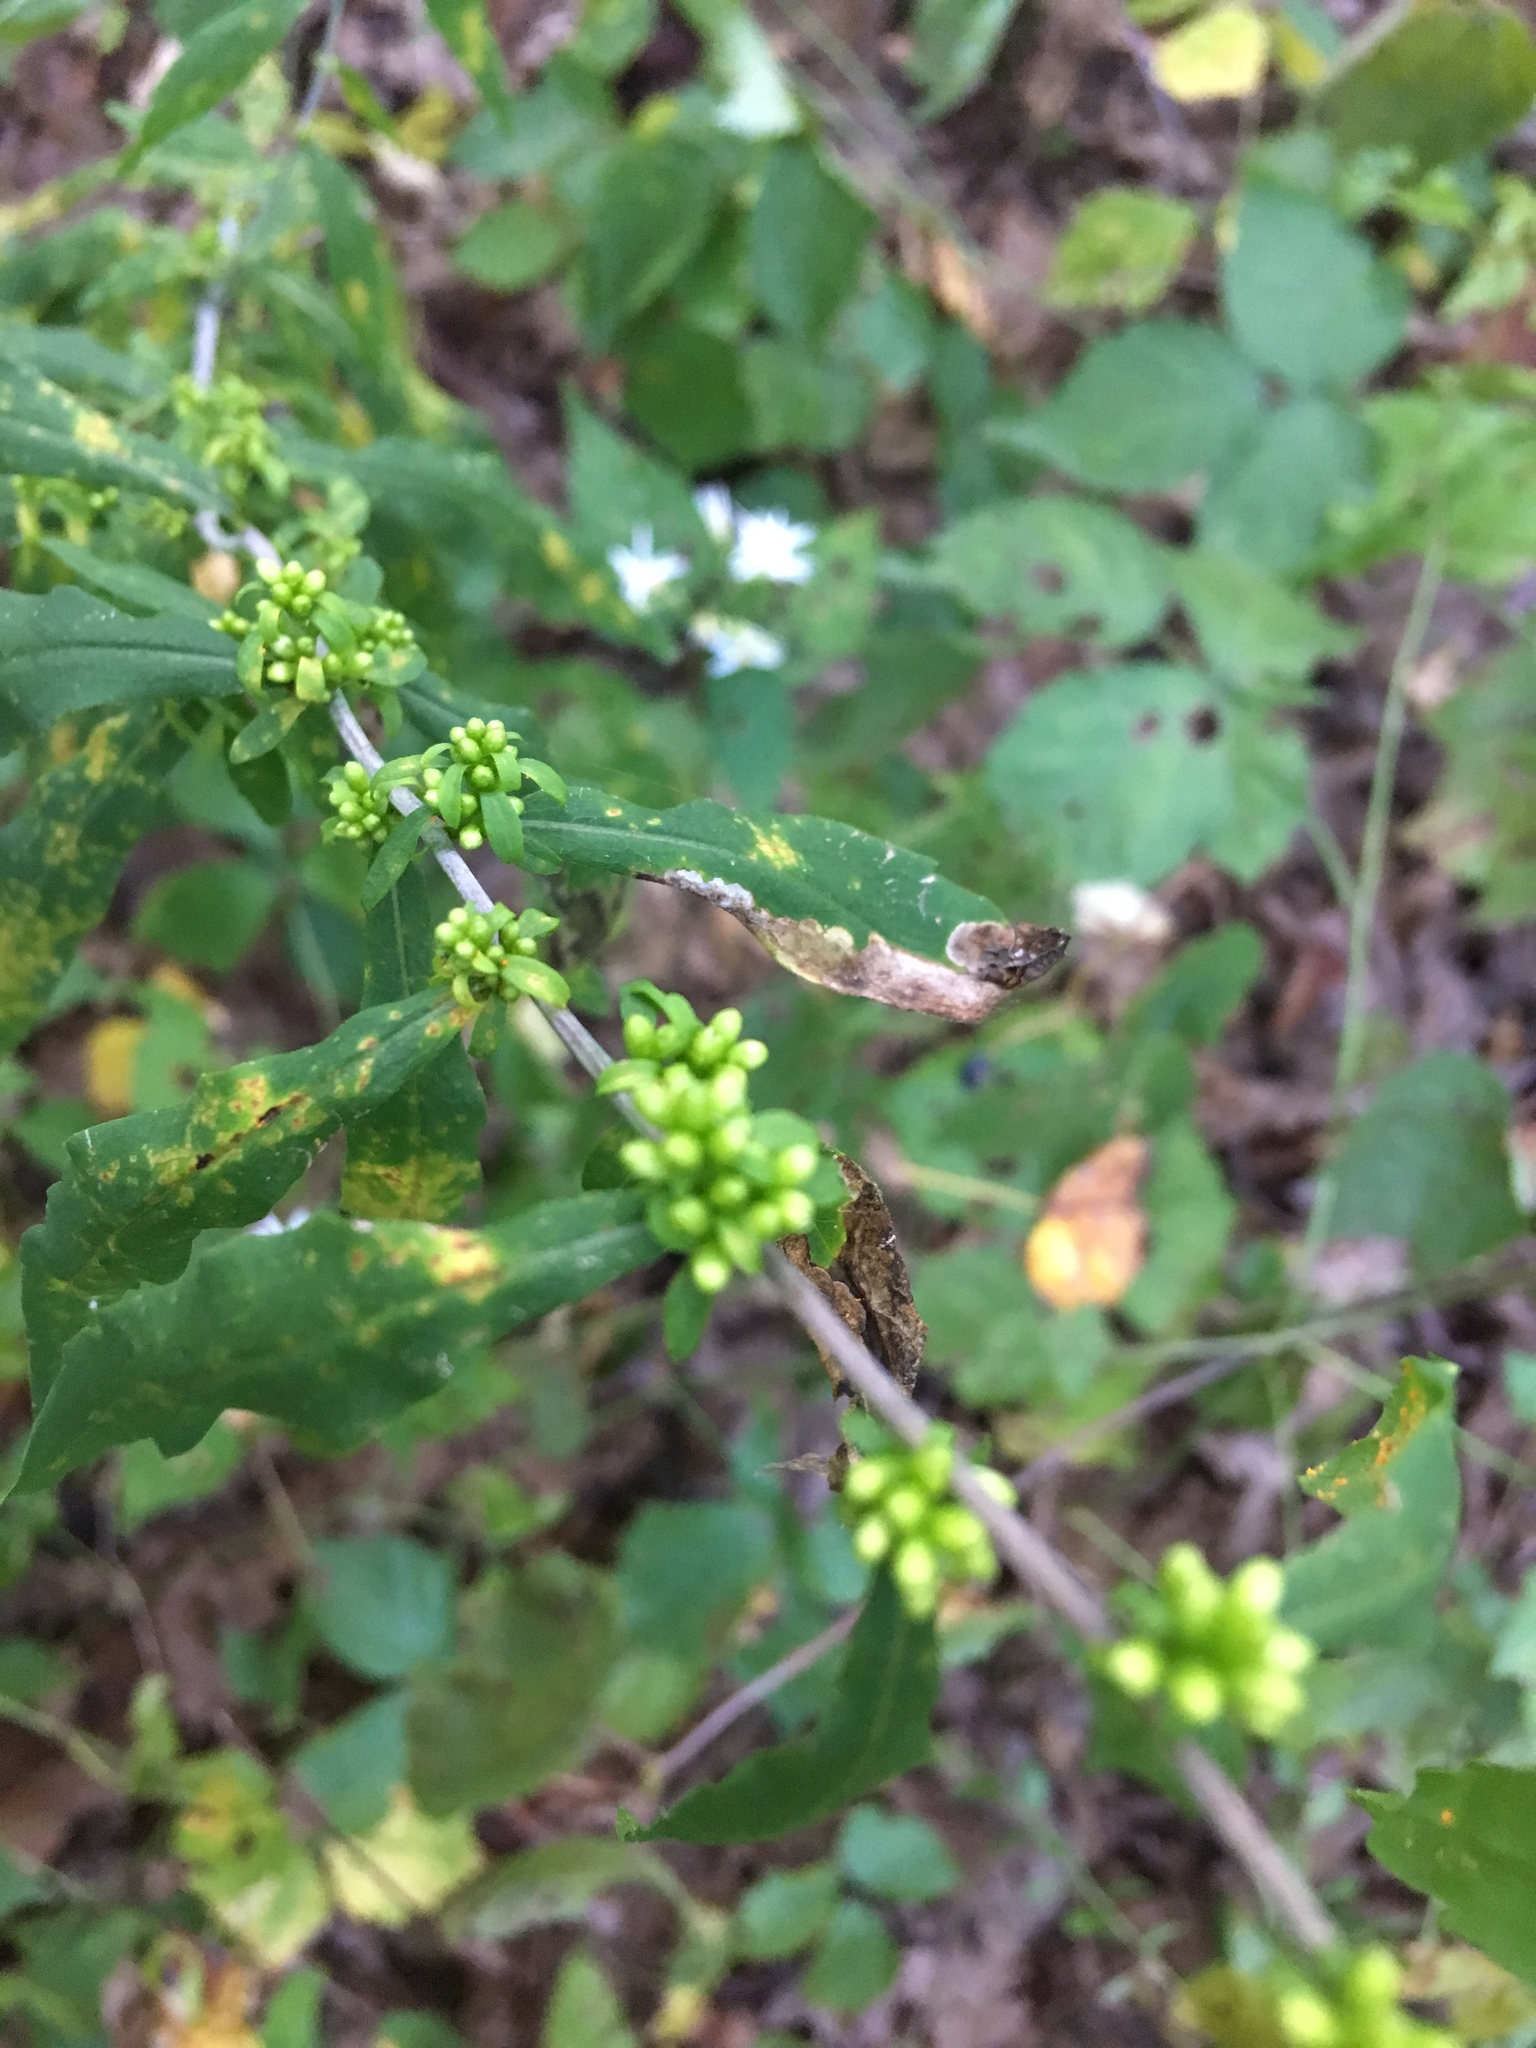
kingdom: Plantae
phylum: Tracheophyta
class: Magnoliopsida
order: Asterales
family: Asteraceae
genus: Solidago
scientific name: Solidago caesia
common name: Woodland goldenrod
